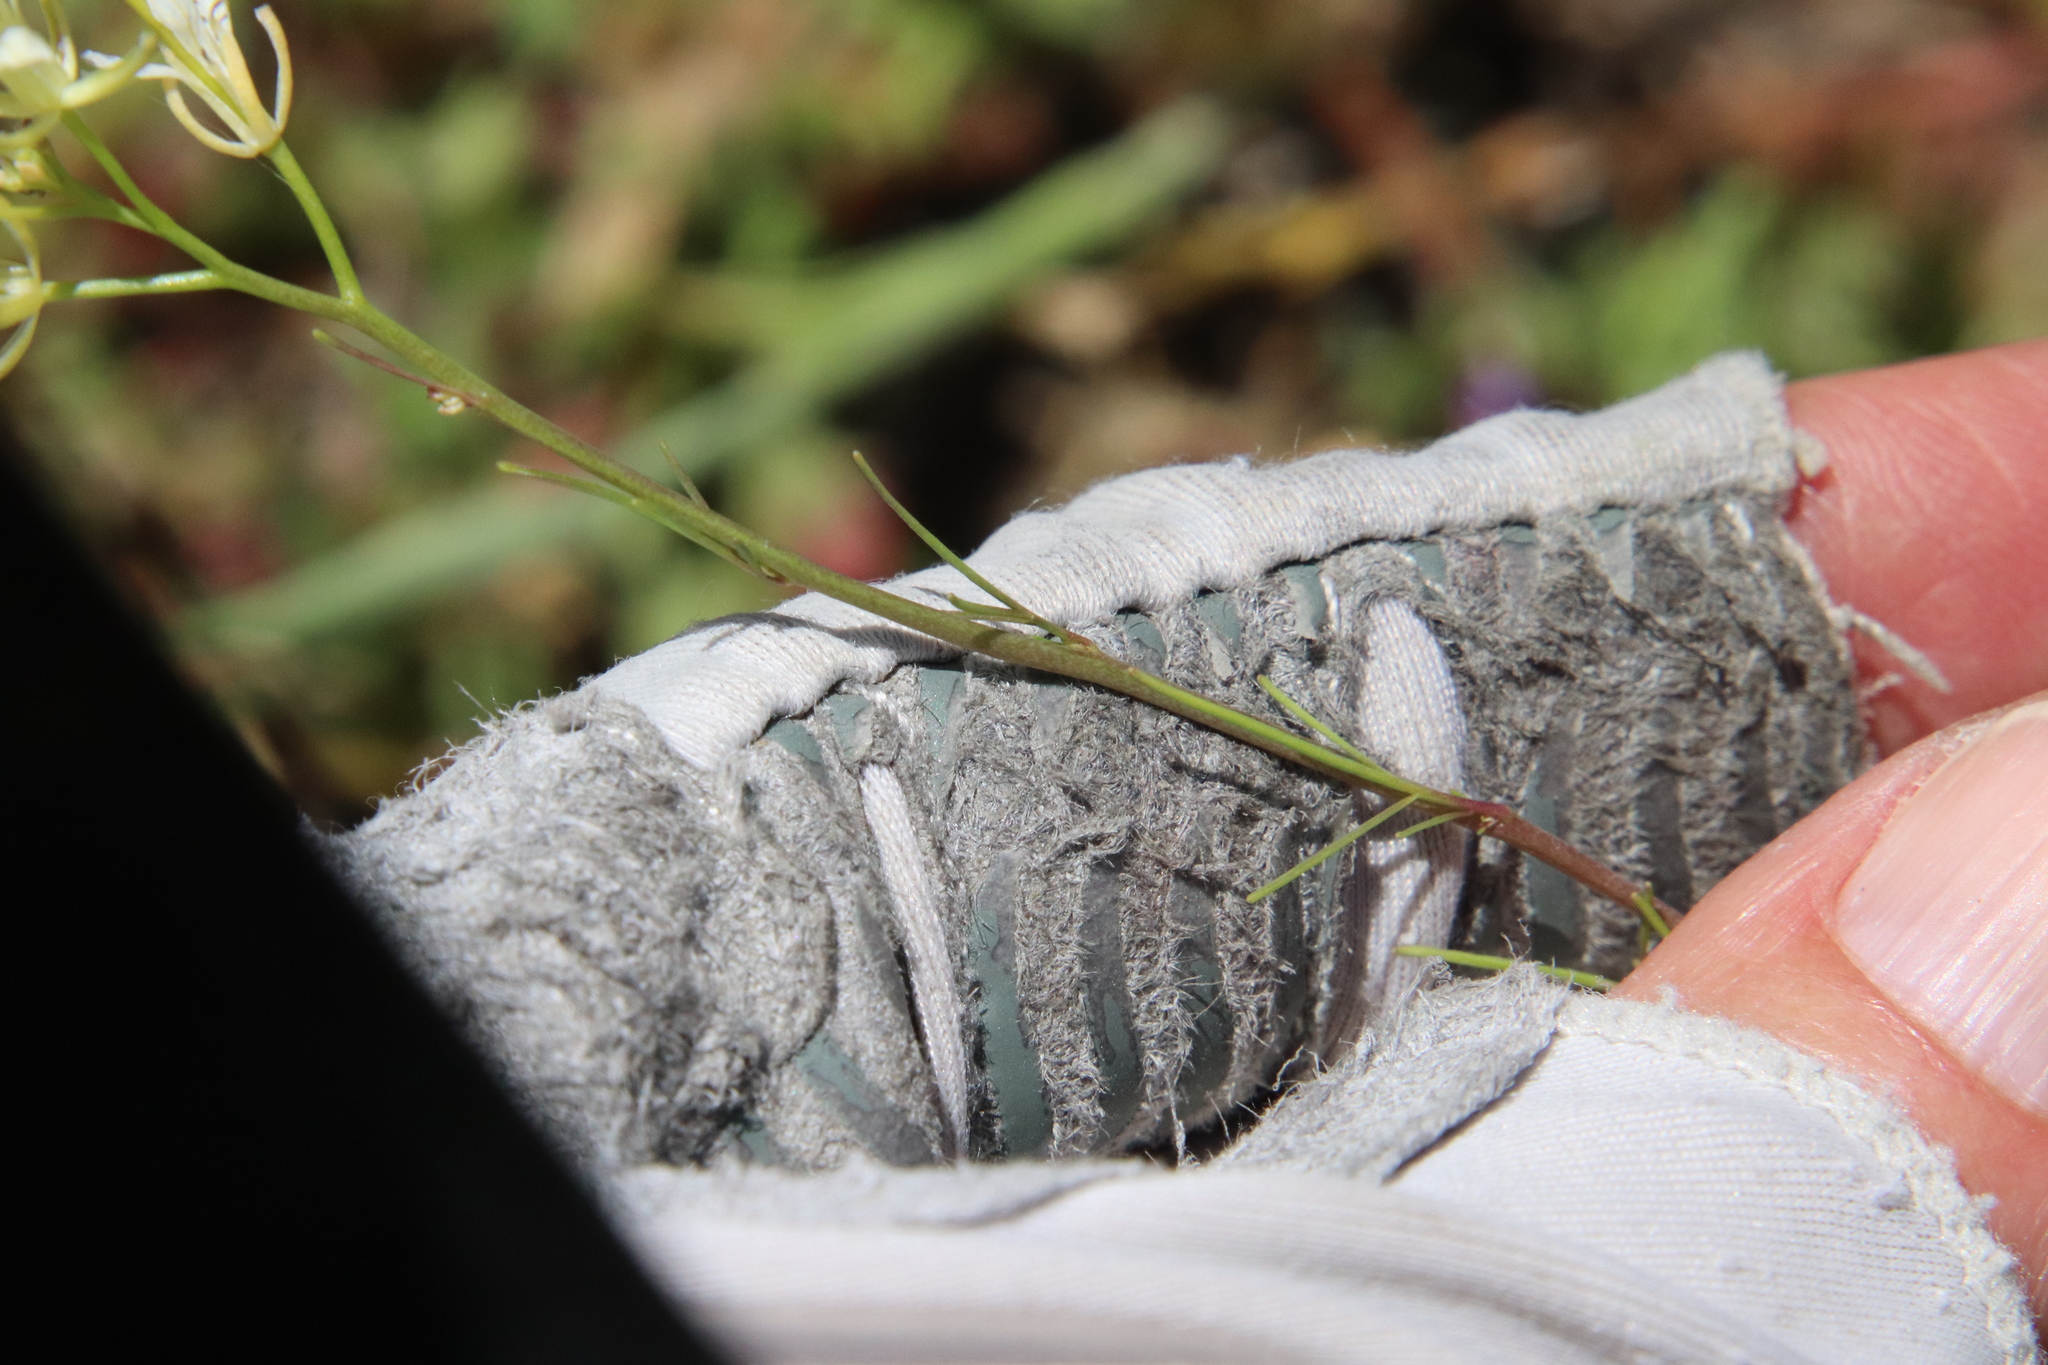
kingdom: Plantae
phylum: Tracheophyta
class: Magnoliopsida
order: Brassicales
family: Brassicaceae
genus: Sisymbrium
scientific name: Sisymbrium altissimum
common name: Tall rocket
